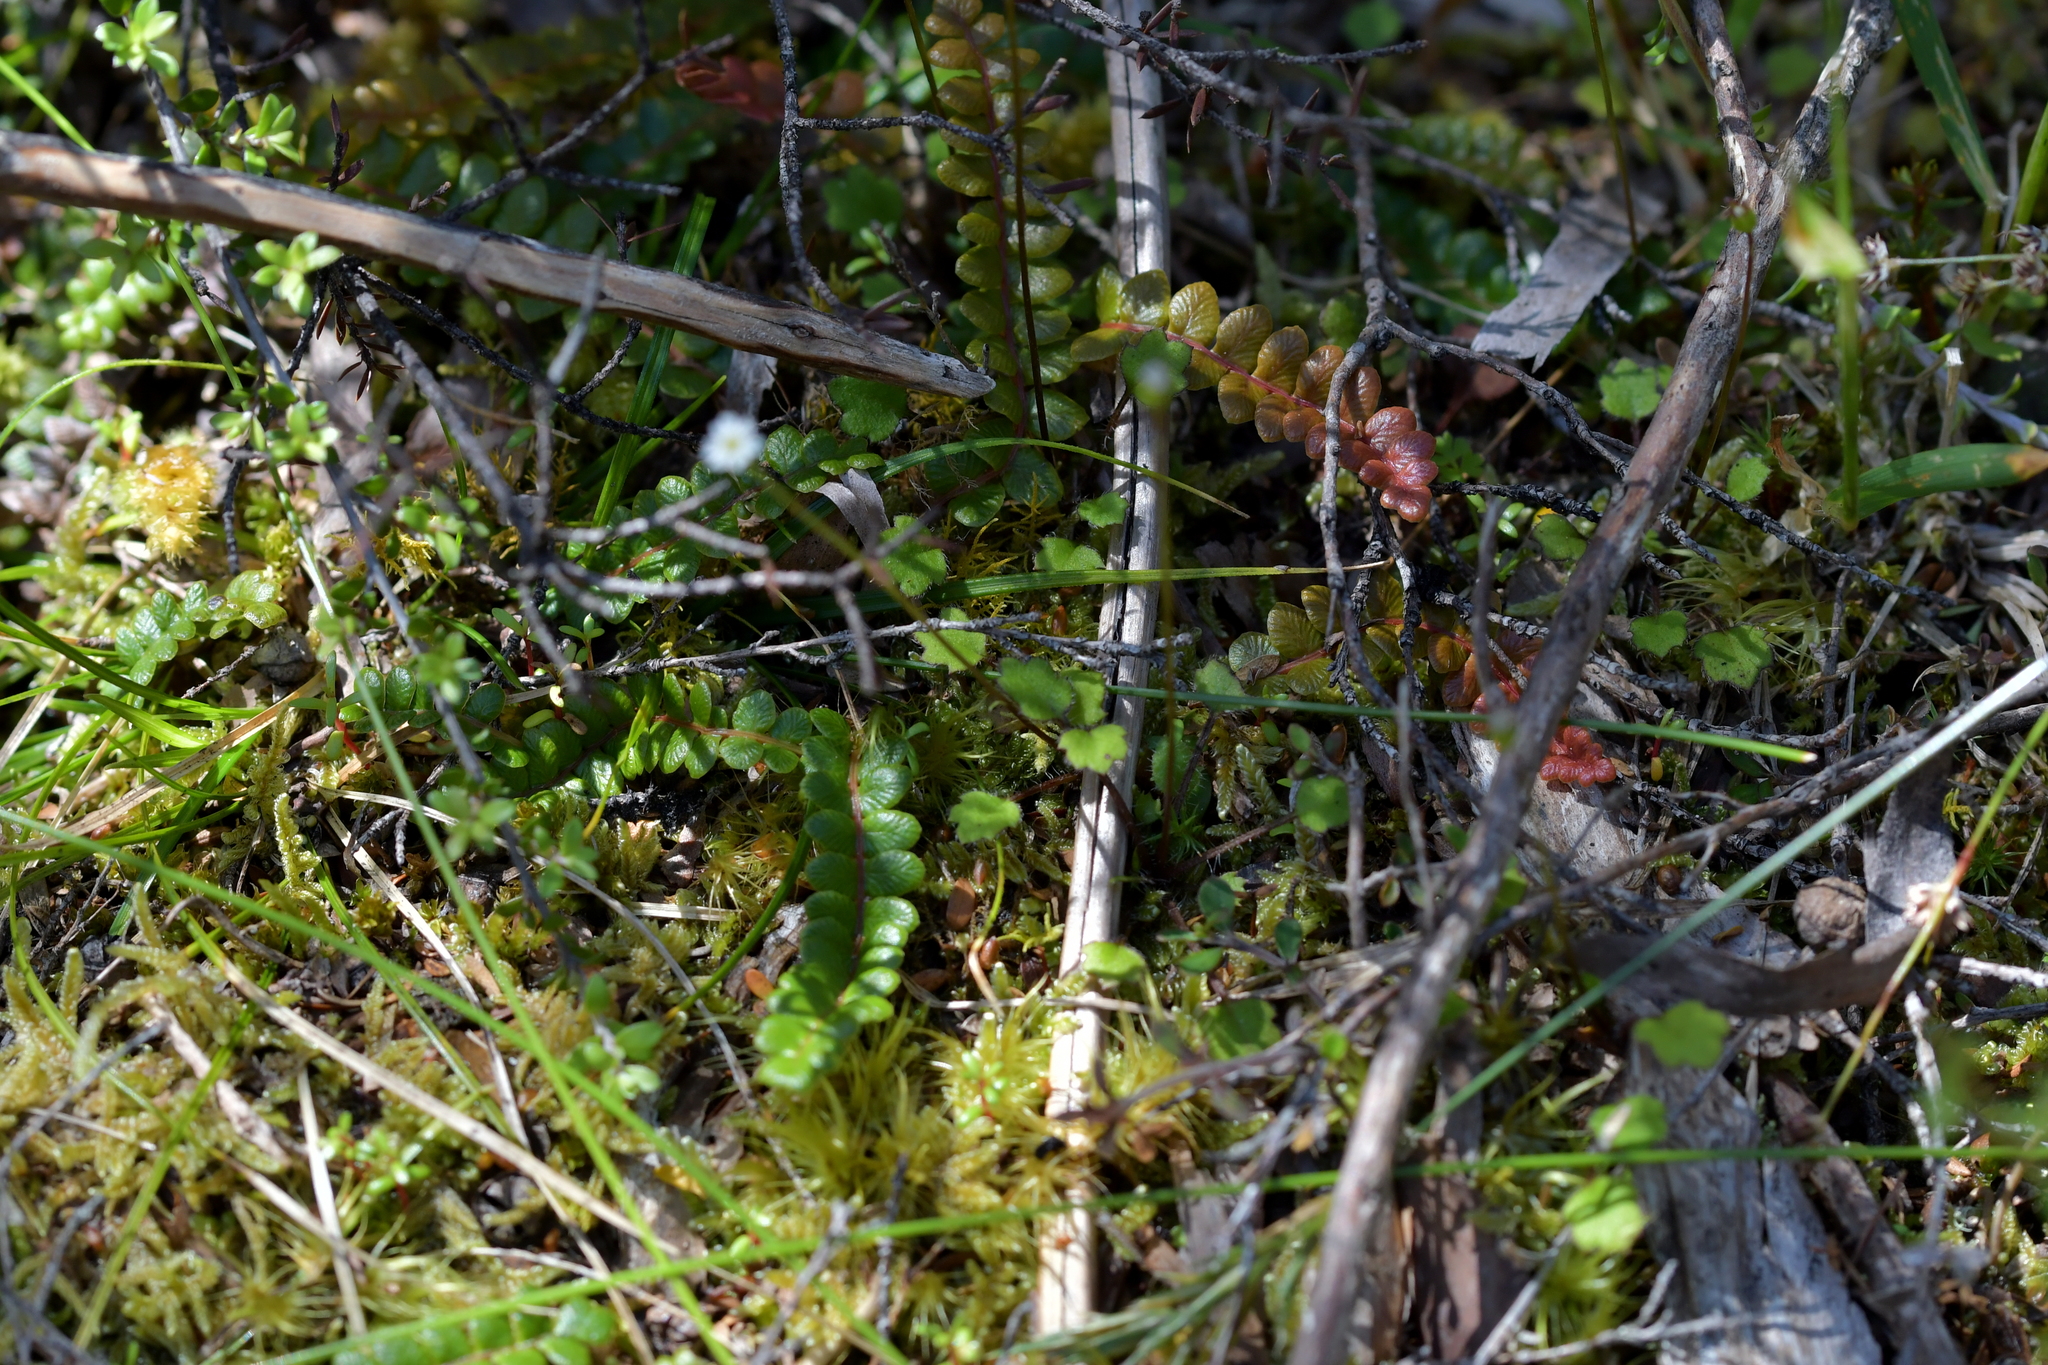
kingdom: Plantae
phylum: Tracheophyta
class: Magnoliopsida
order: Asterales
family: Asteraceae
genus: Lagenophora
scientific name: Lagenophora strangulata
